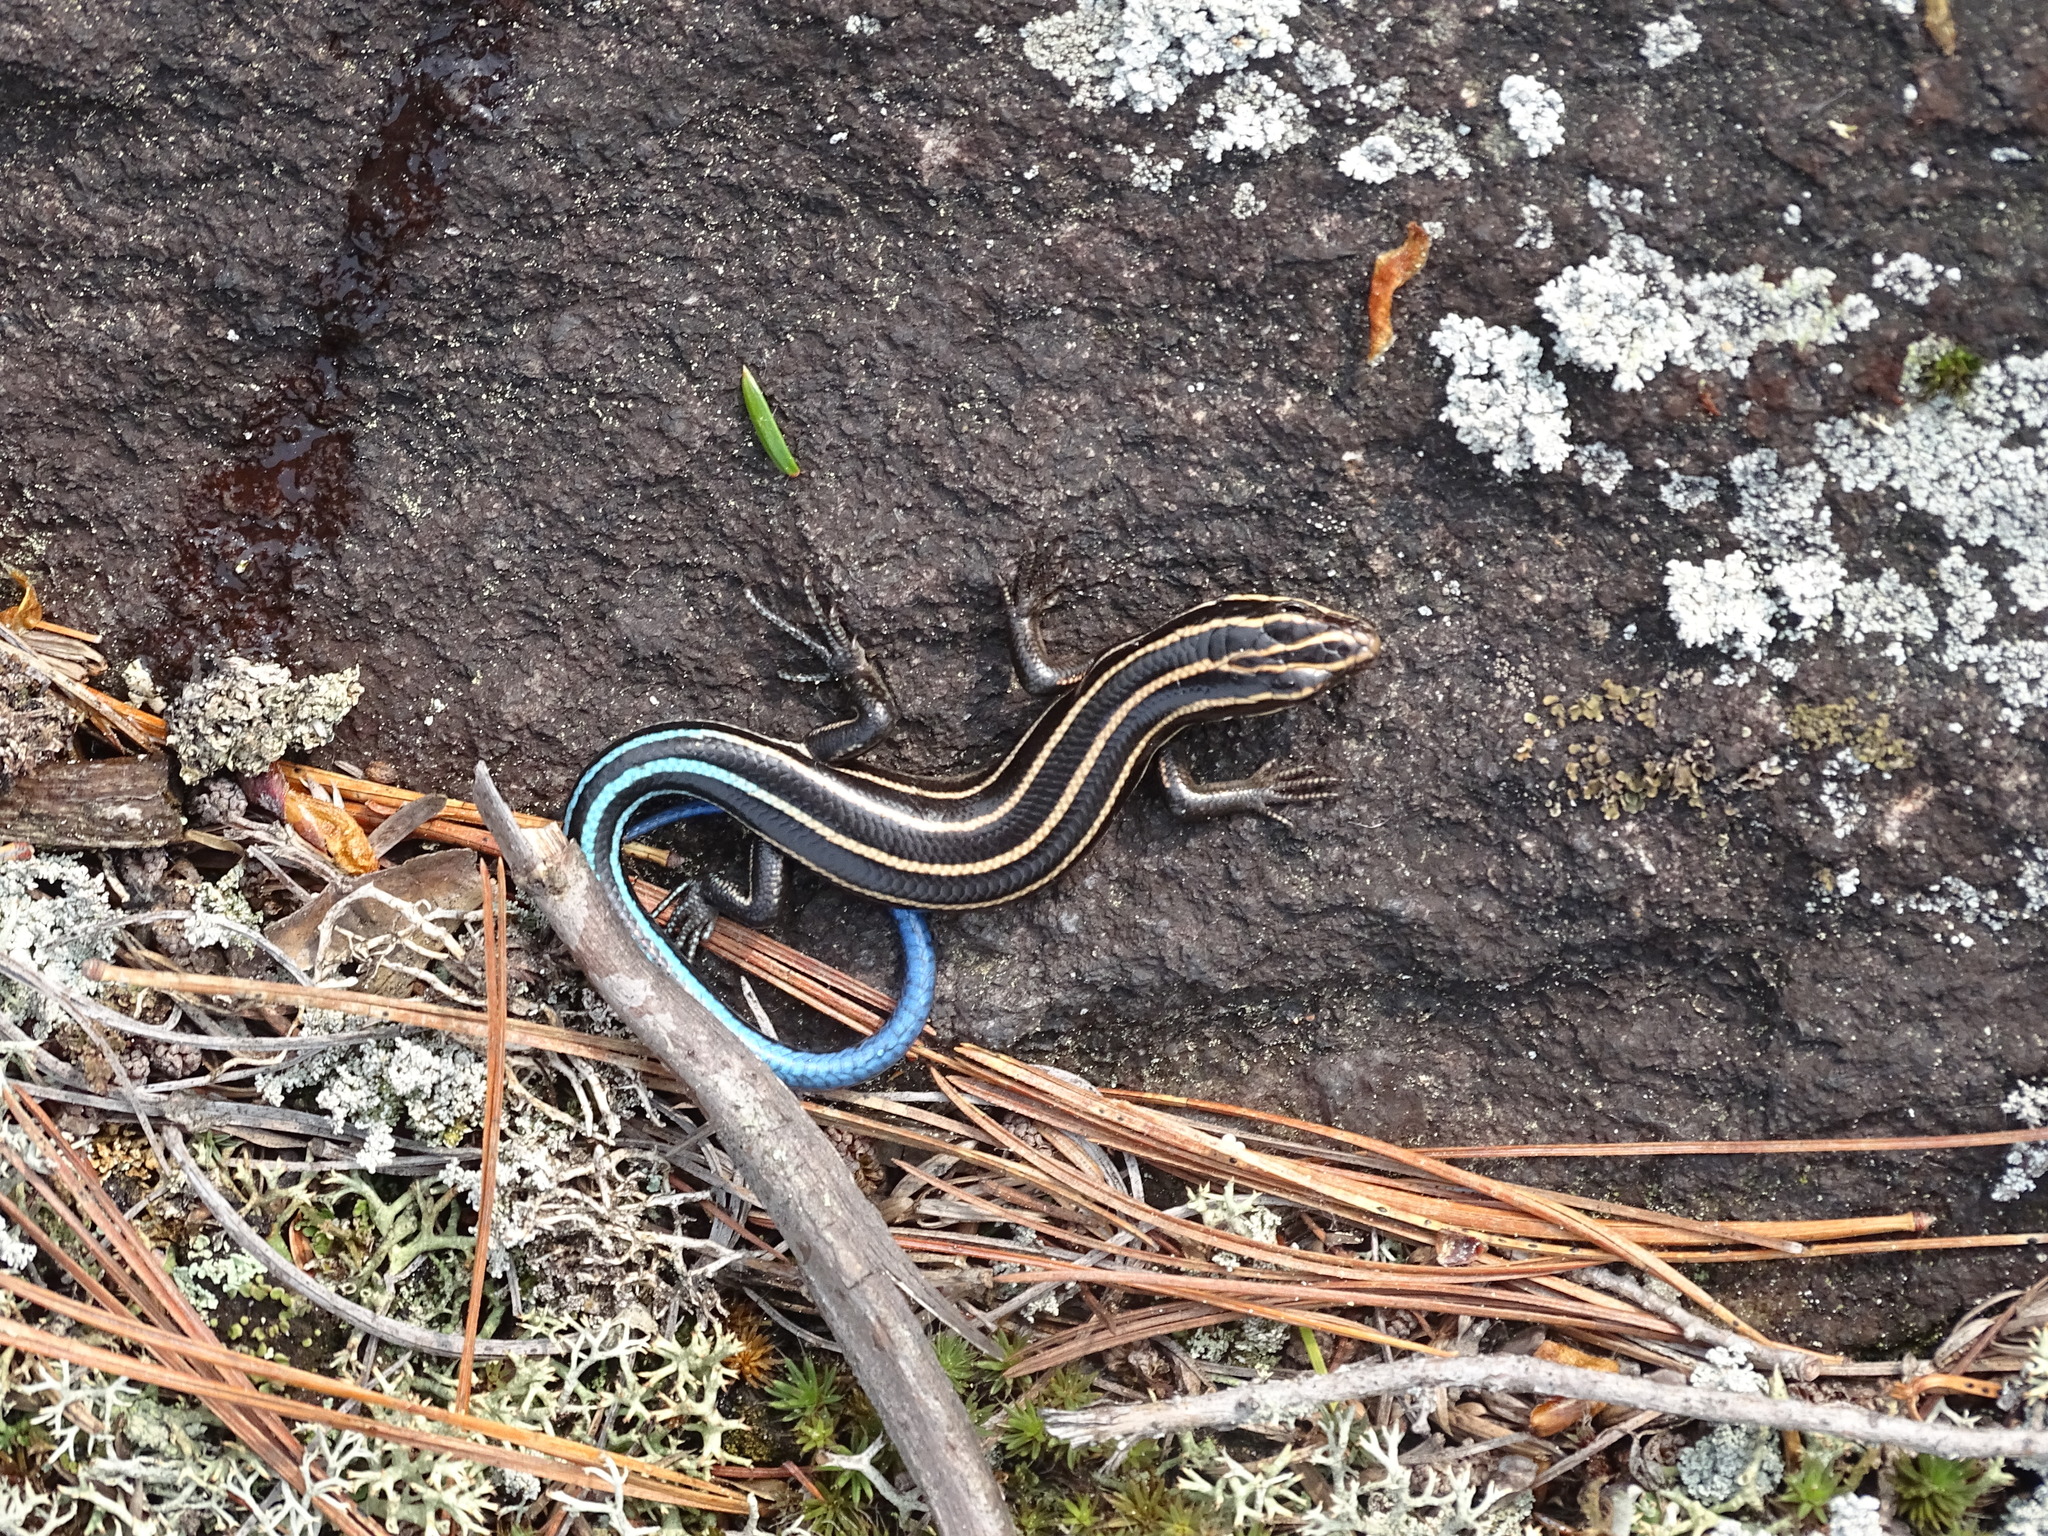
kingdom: Animalia
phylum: Chordata
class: Squamata
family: Scincidae
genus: Plestiodon
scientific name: Plestiodon fasciatus
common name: Five-lined skink
